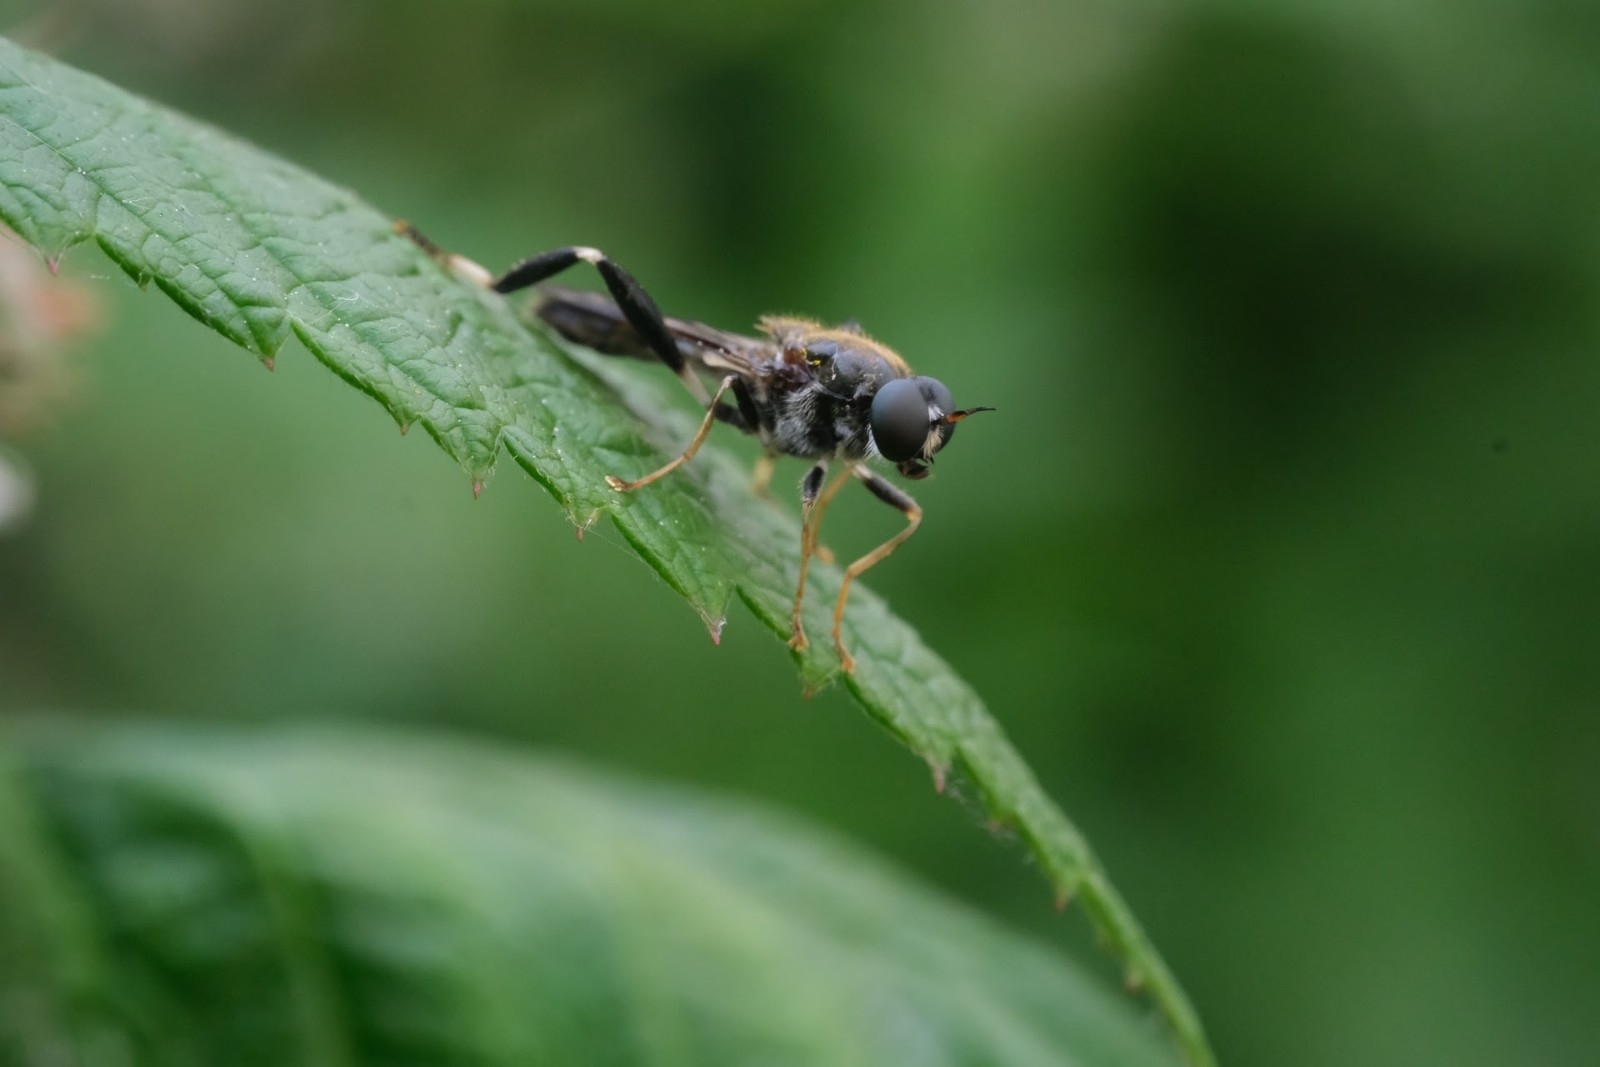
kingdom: Animalia
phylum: Arthropoda
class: Insecta
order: Diptera
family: Stratiomyidae
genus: Exaireta
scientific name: Exaireta spinigera
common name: Blue soldier fly
